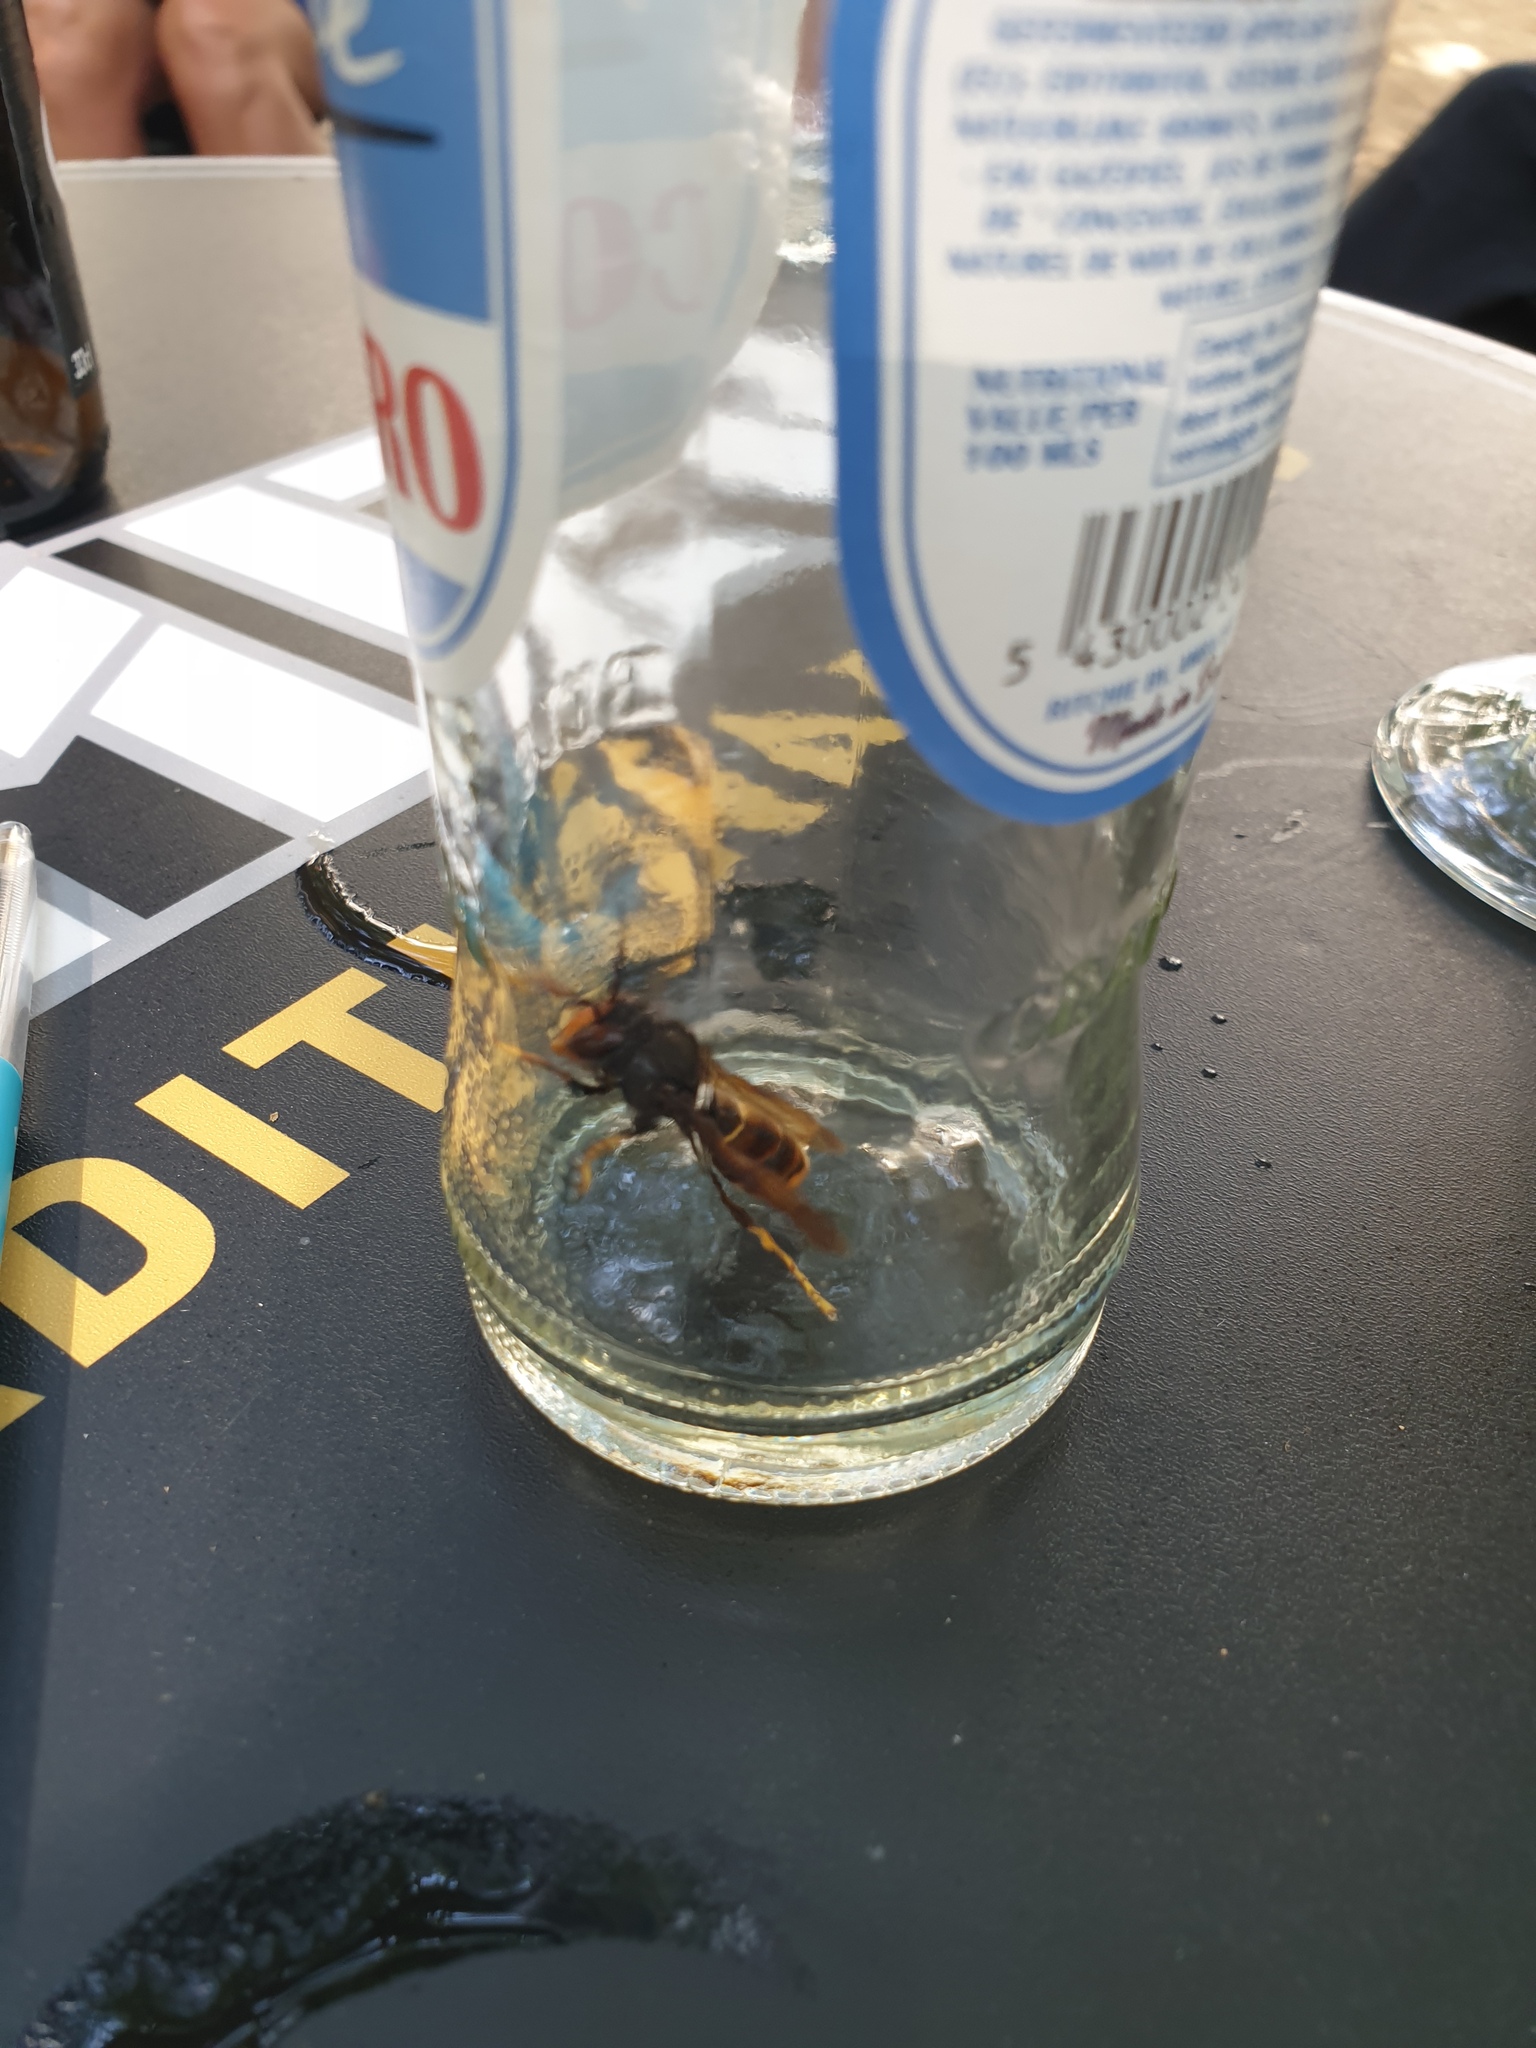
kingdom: Animalia
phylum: Arthropoda
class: Insecta
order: Hymenoptera
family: Vespidae
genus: Vespa
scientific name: Vespa velutina
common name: Asian hornet
